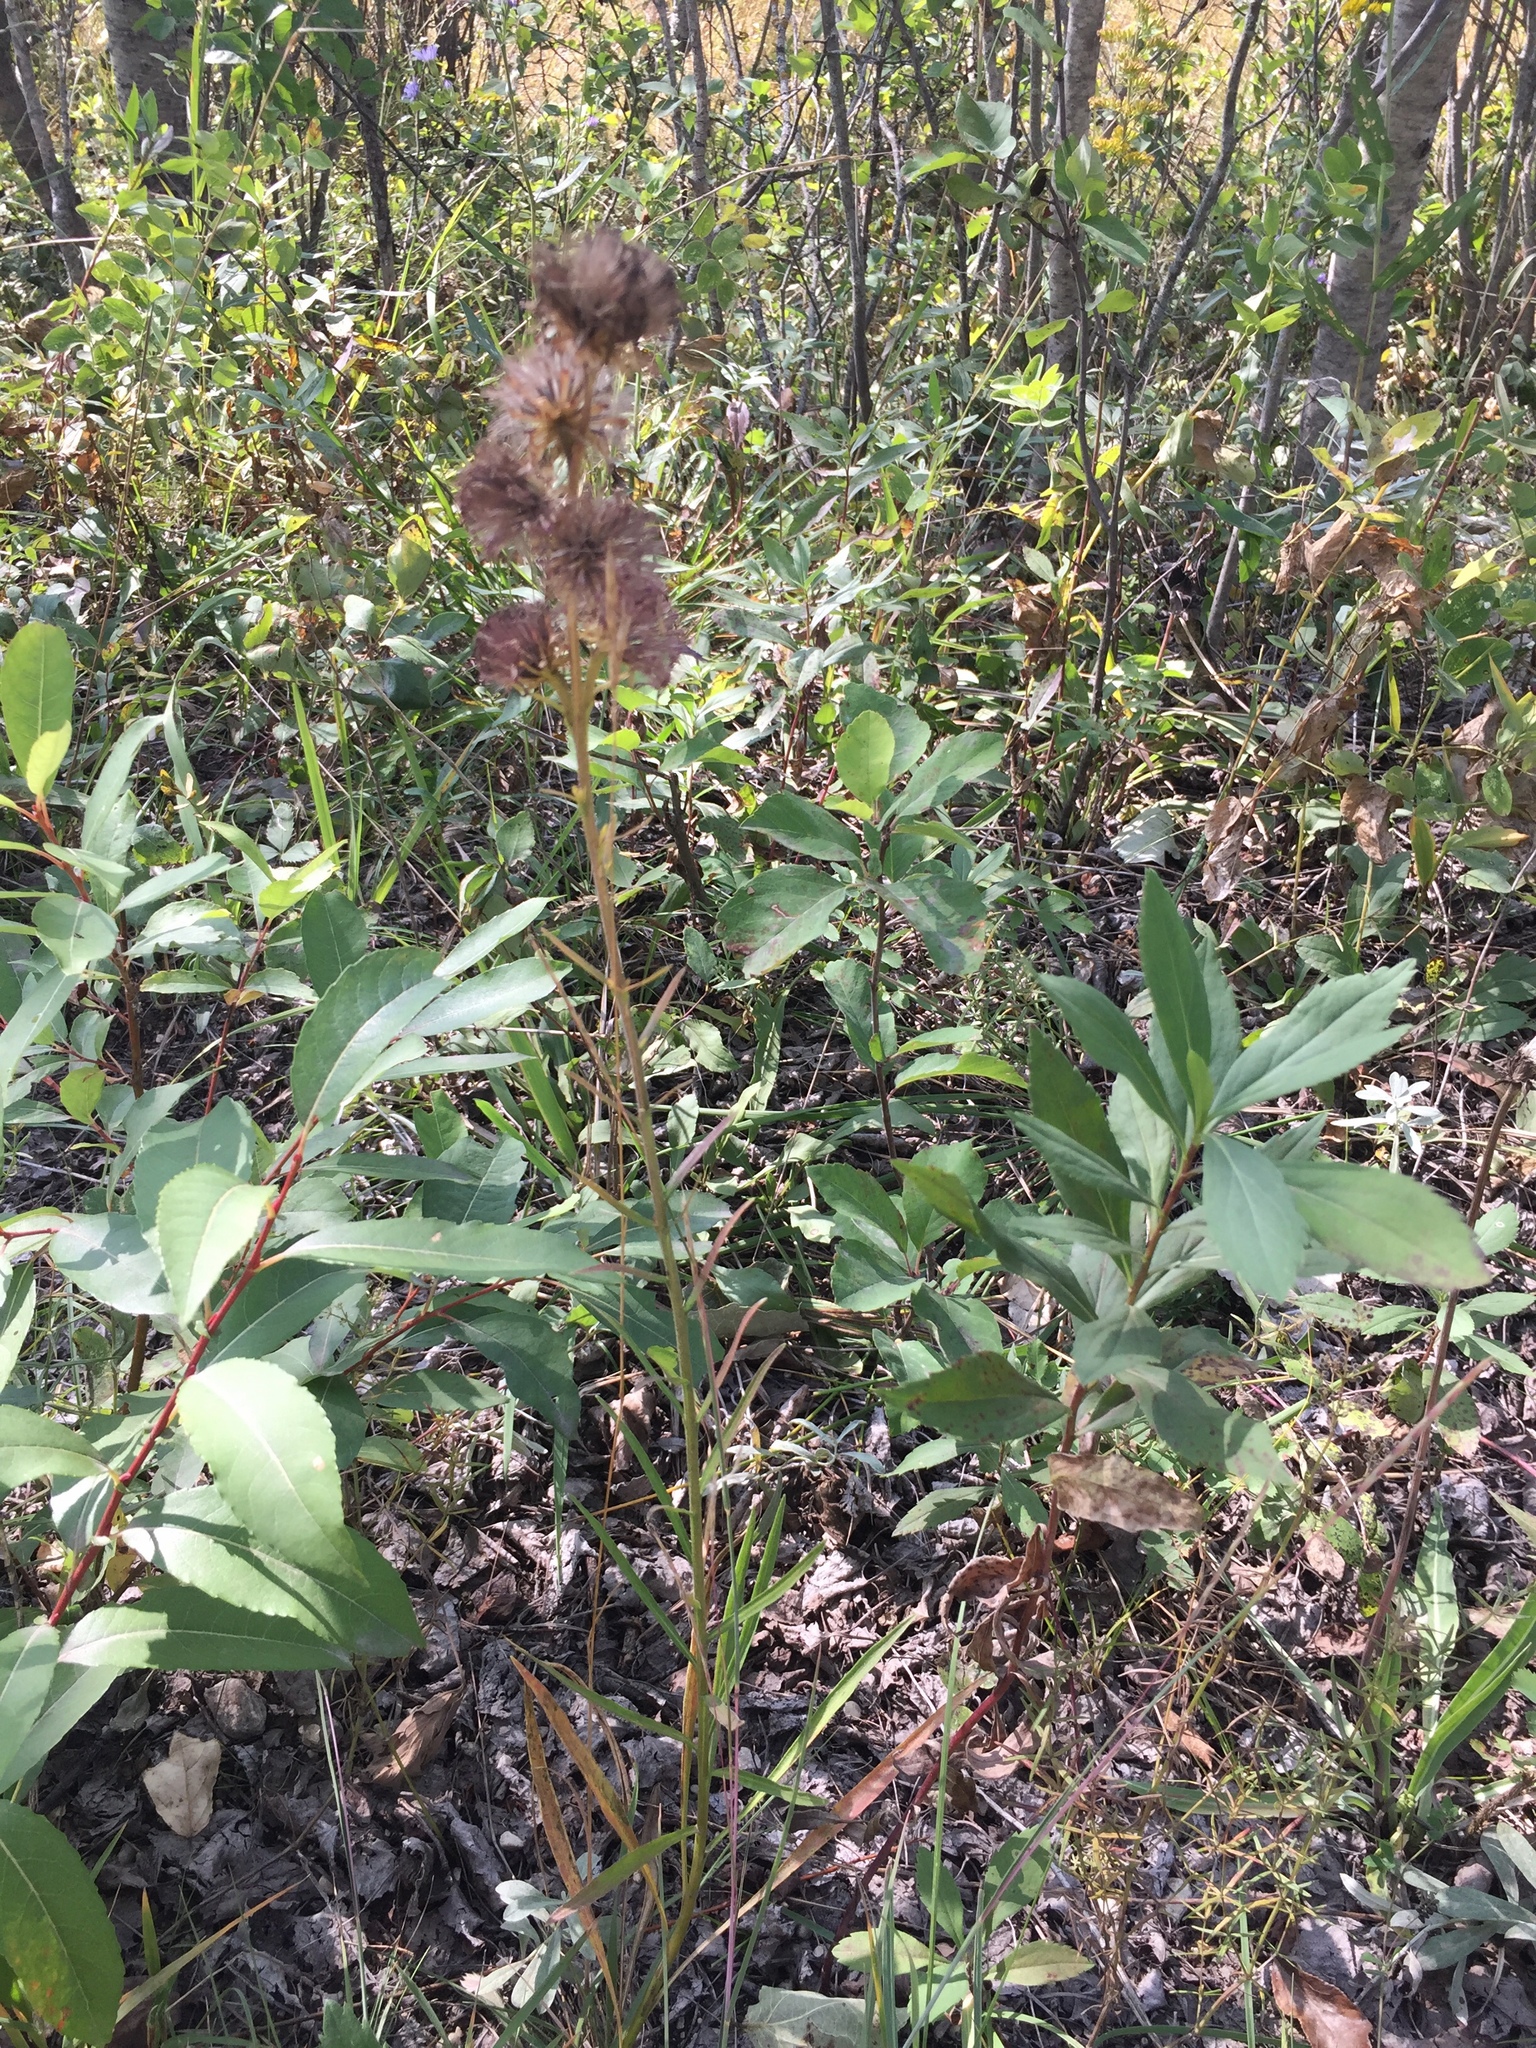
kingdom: Plantae
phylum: Tracheophyta
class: Magnoliopsida
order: Asterales
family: Asteraceae
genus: Liatris
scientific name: Liatris ligulistylis
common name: Northern plains gayfeather
